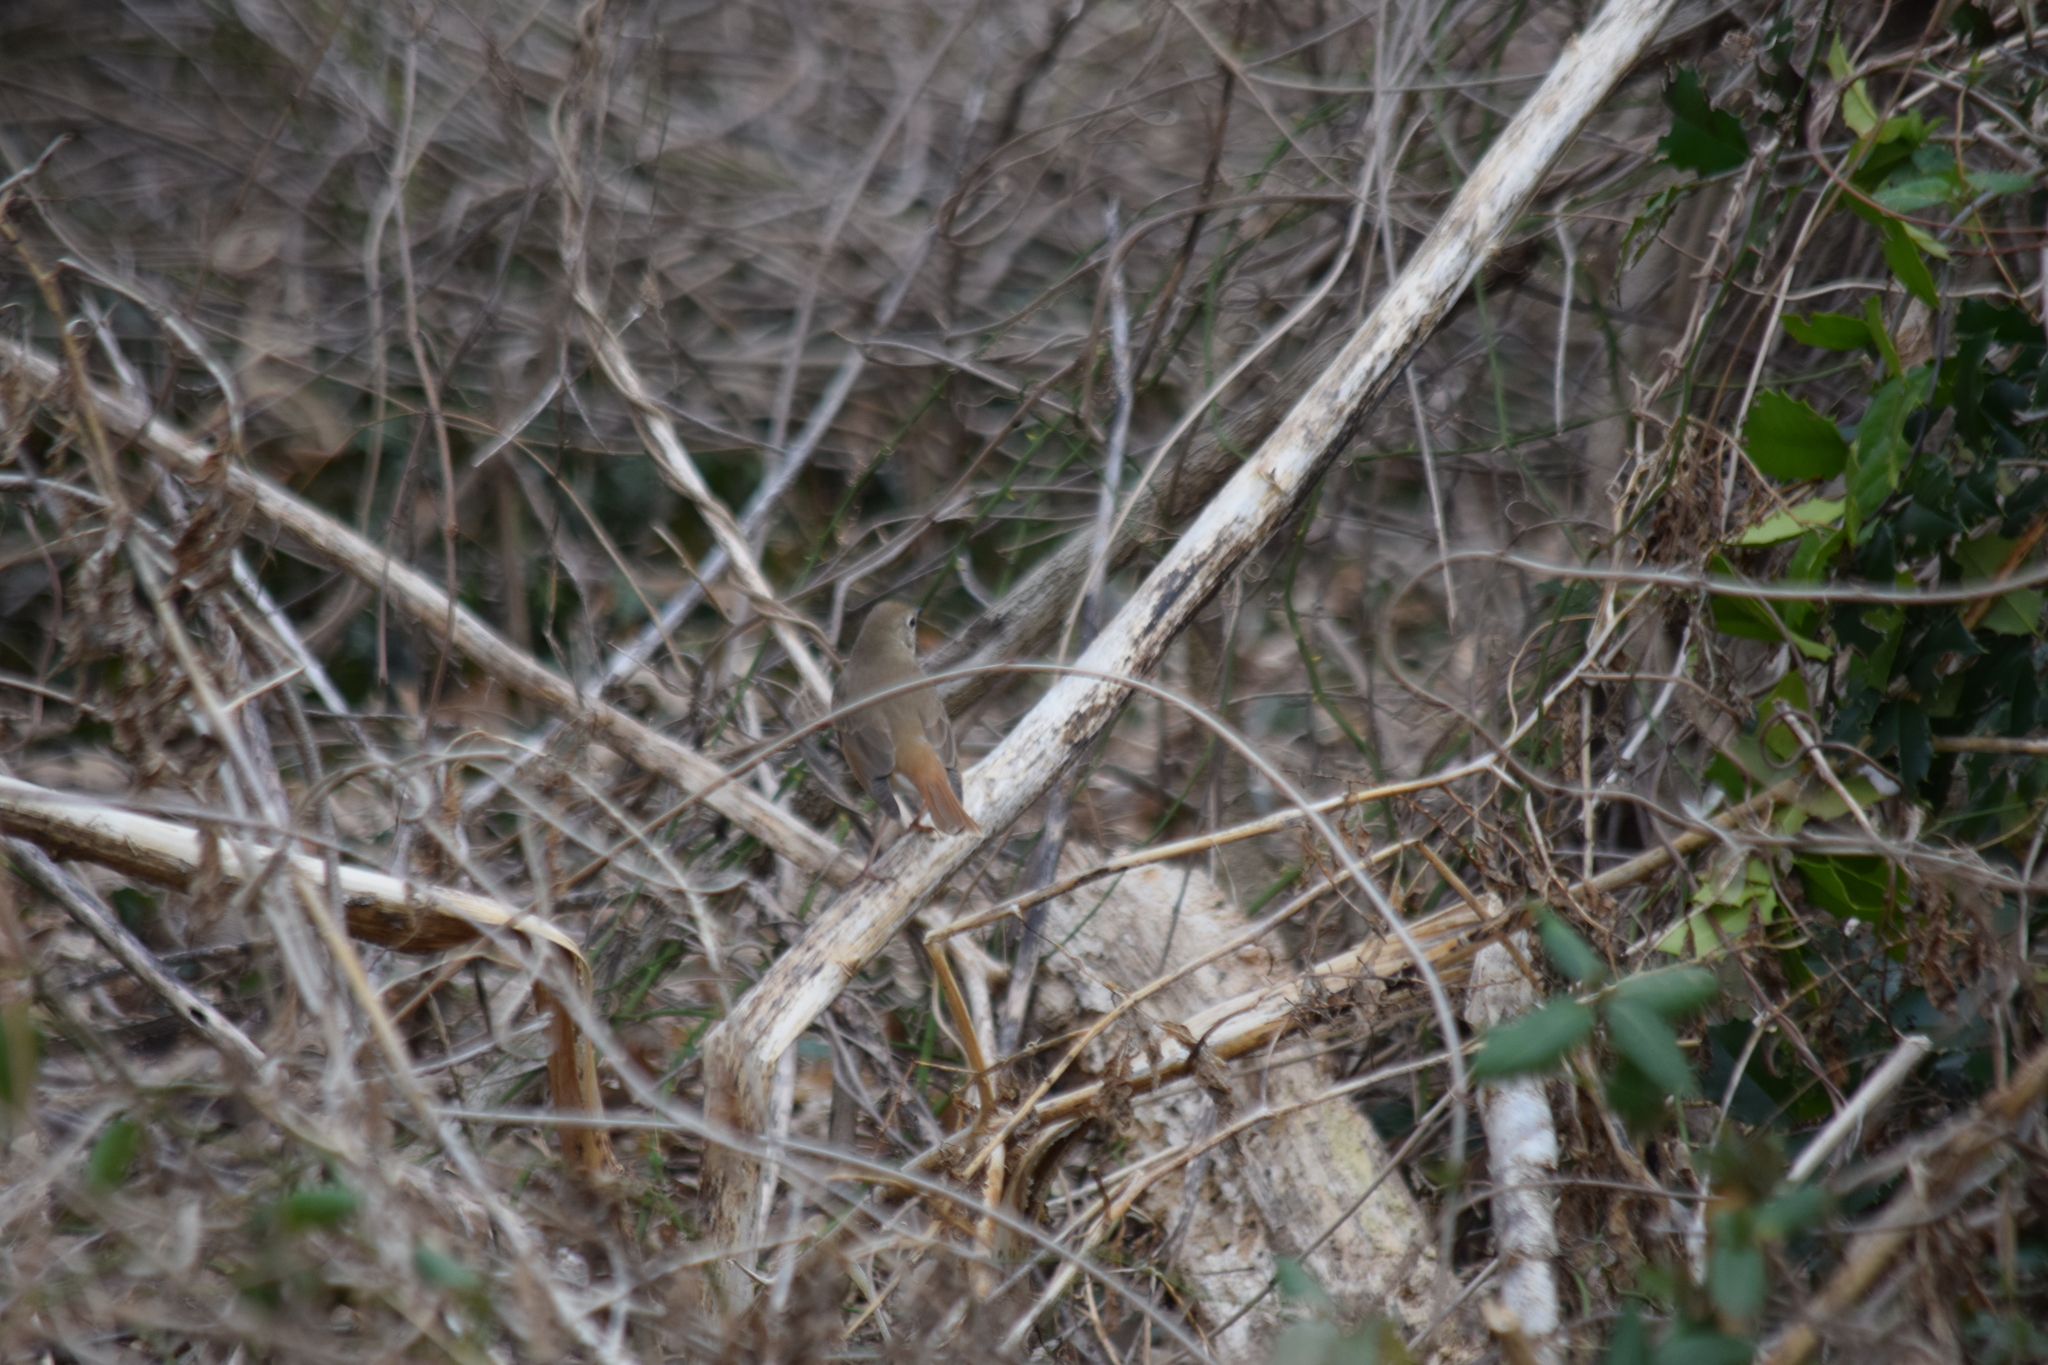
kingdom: Animalia
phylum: Chordata
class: Aves
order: Passeriformes
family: Turdidae
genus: Catharus
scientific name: Catharus guttatus
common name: Hermit thrush
